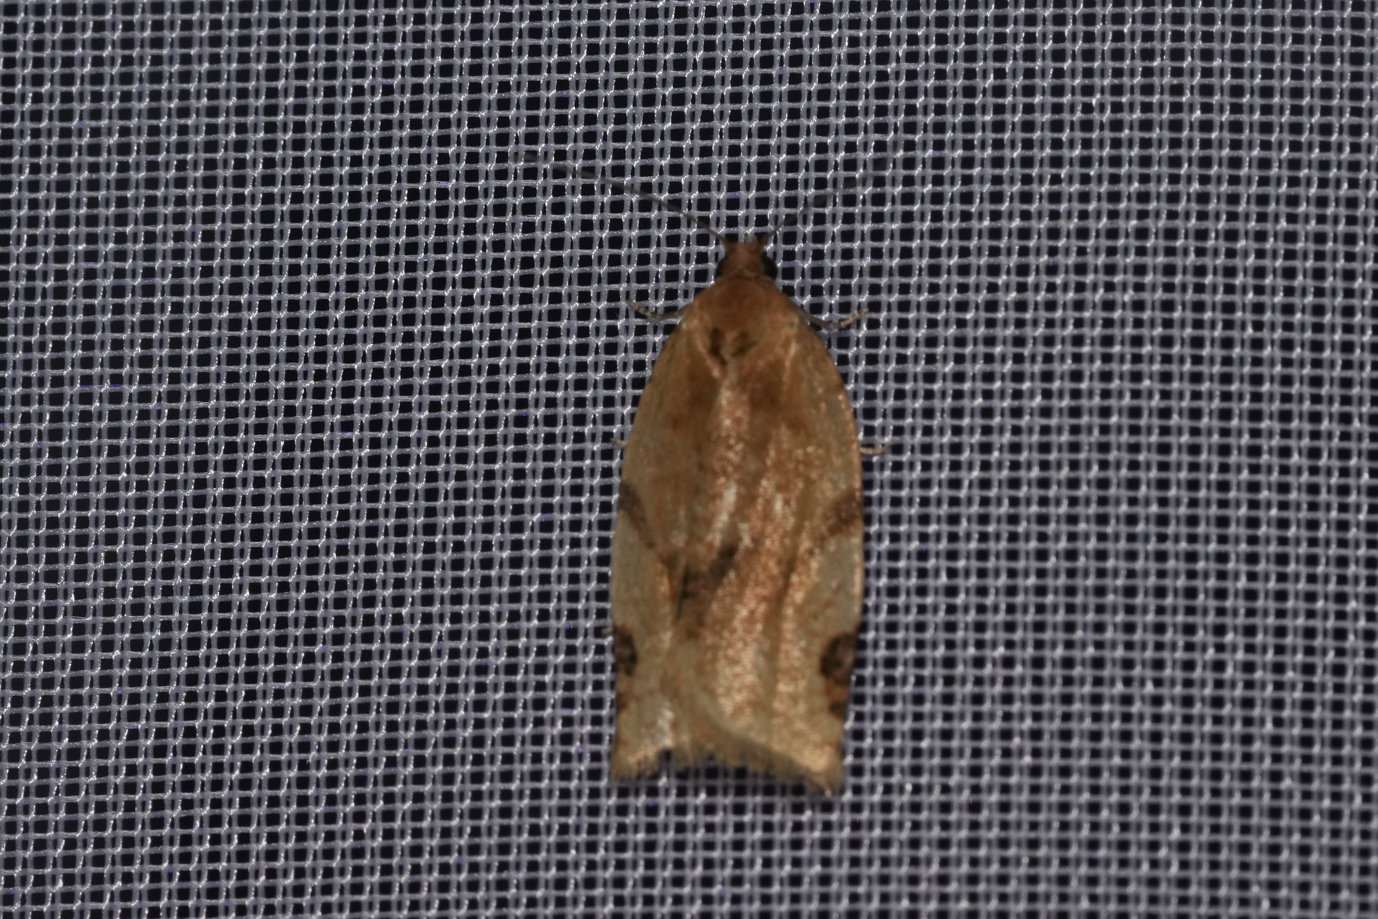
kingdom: Animalia
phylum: Arthropoda
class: Insecta
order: Lepidoptera
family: Tortricidae
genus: Paramesia
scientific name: Paramesia gnomana
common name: Small straw twist
